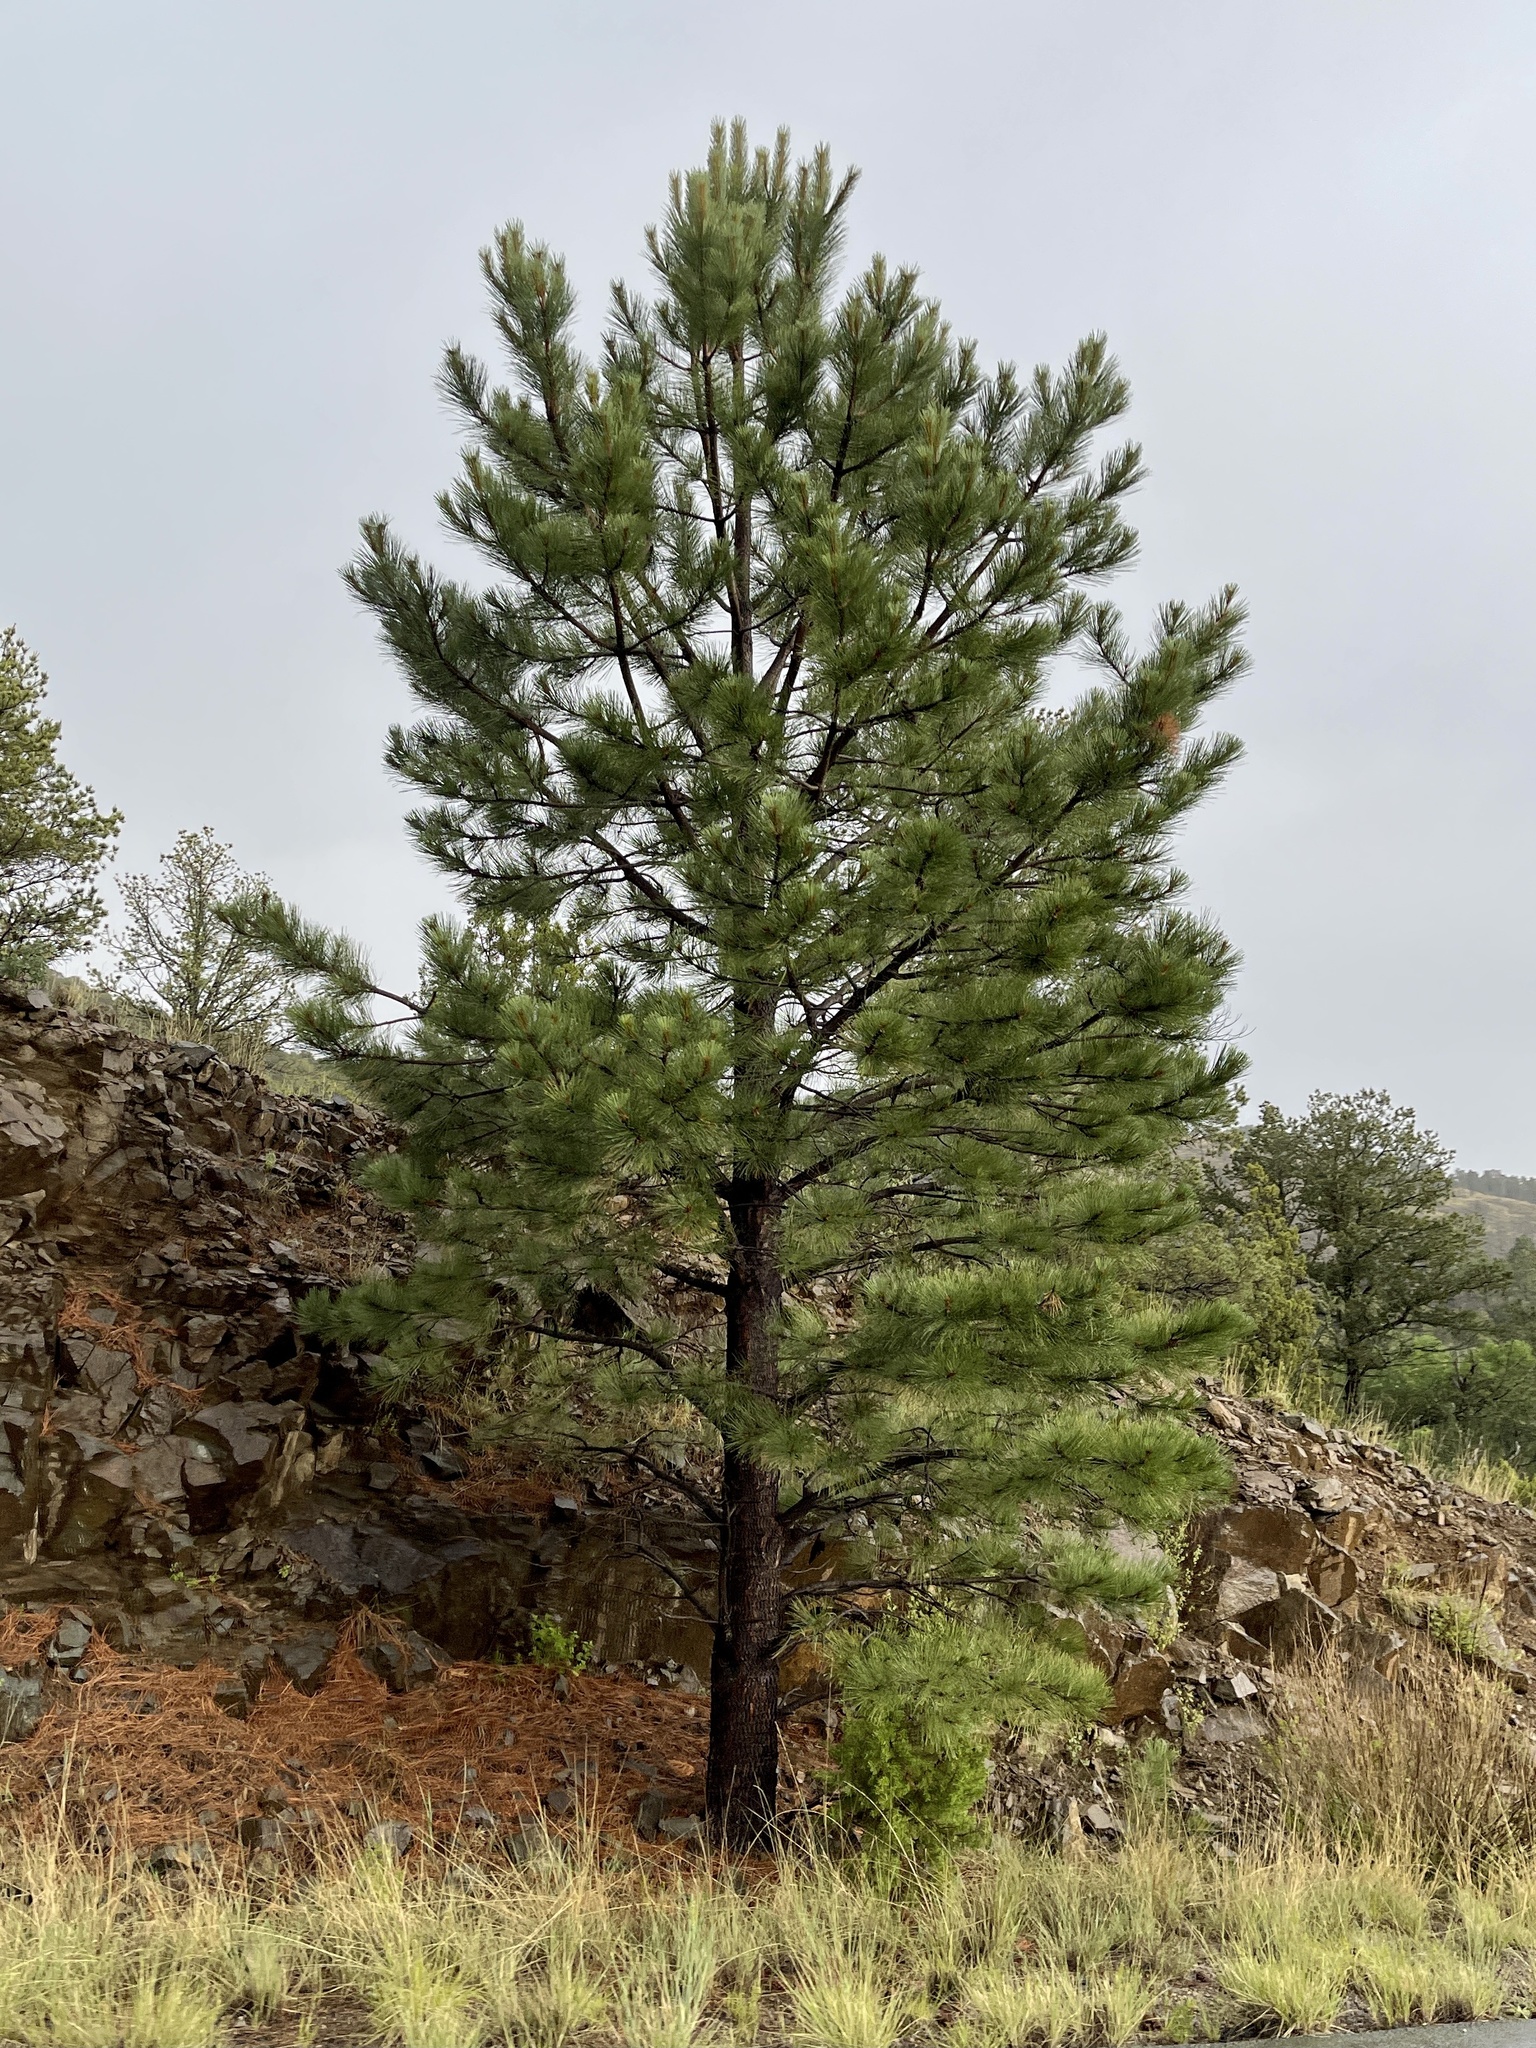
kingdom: Plantae
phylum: Tracheophyta
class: Pinopsida
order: Pinales
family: Pinaceae
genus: Pinus
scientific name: Pinus ponderosa
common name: Western yellow-pine
